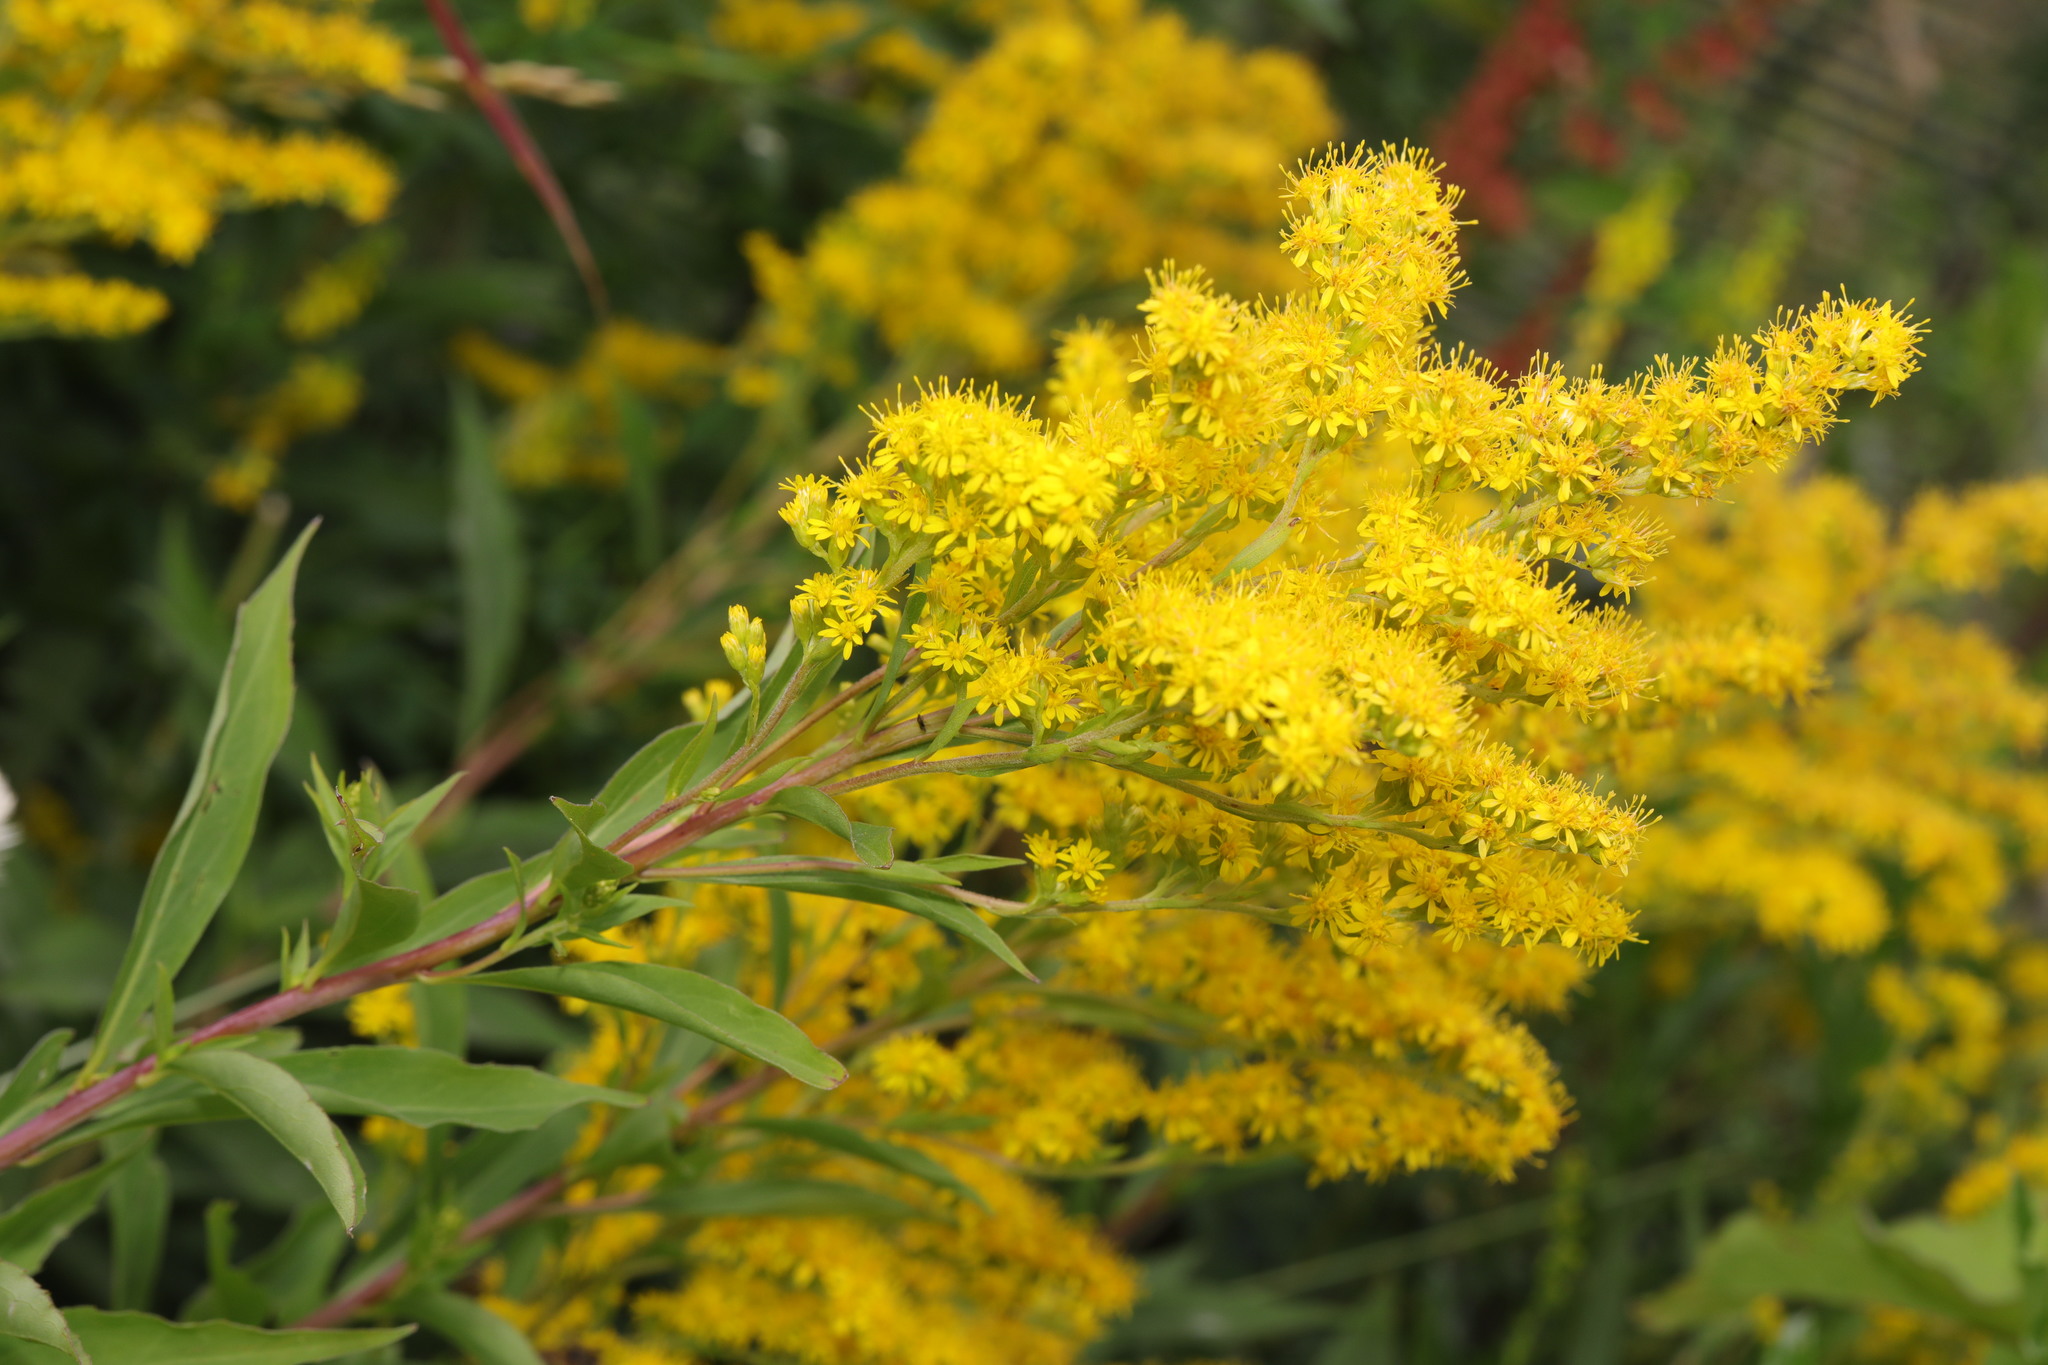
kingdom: Plantae
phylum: Tracheophyta
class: Magnoliopsida
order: Asterales
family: Asteraceae
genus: Solidago
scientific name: Solidago canadensis
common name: Canada goldenrod
